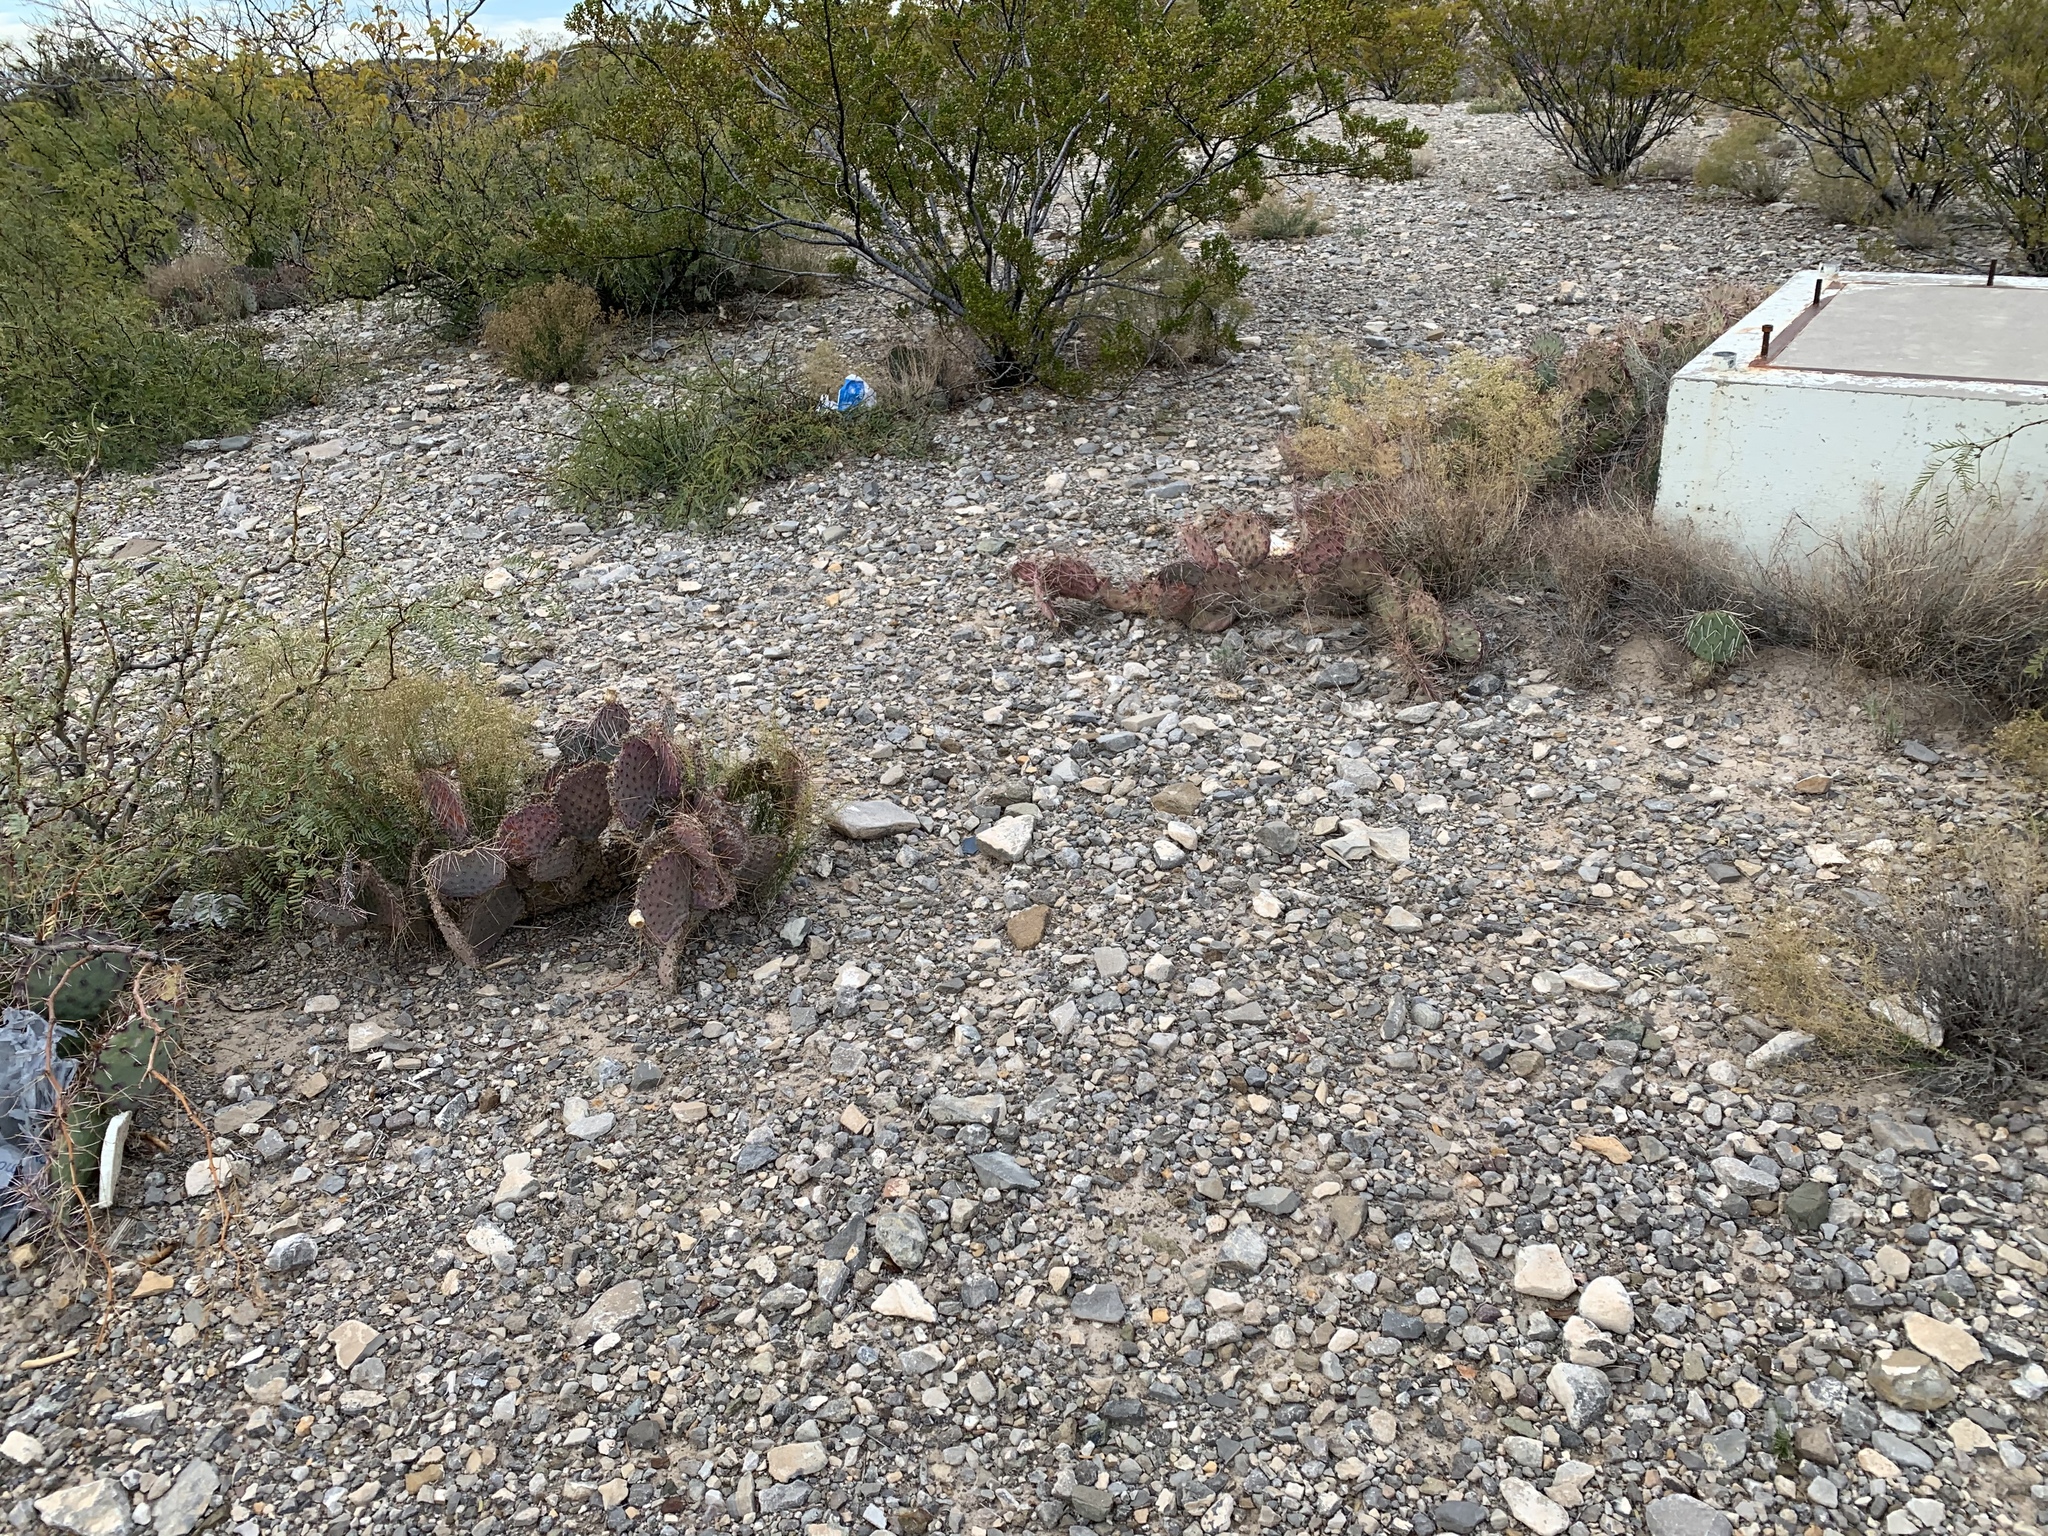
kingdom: Plantae
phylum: Tracheophyta
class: Magnoliopsida
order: Caryophyllales
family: Cactaceae
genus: Opuntia
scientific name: Opuntia macrocentra
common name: Purple prickly-pear
